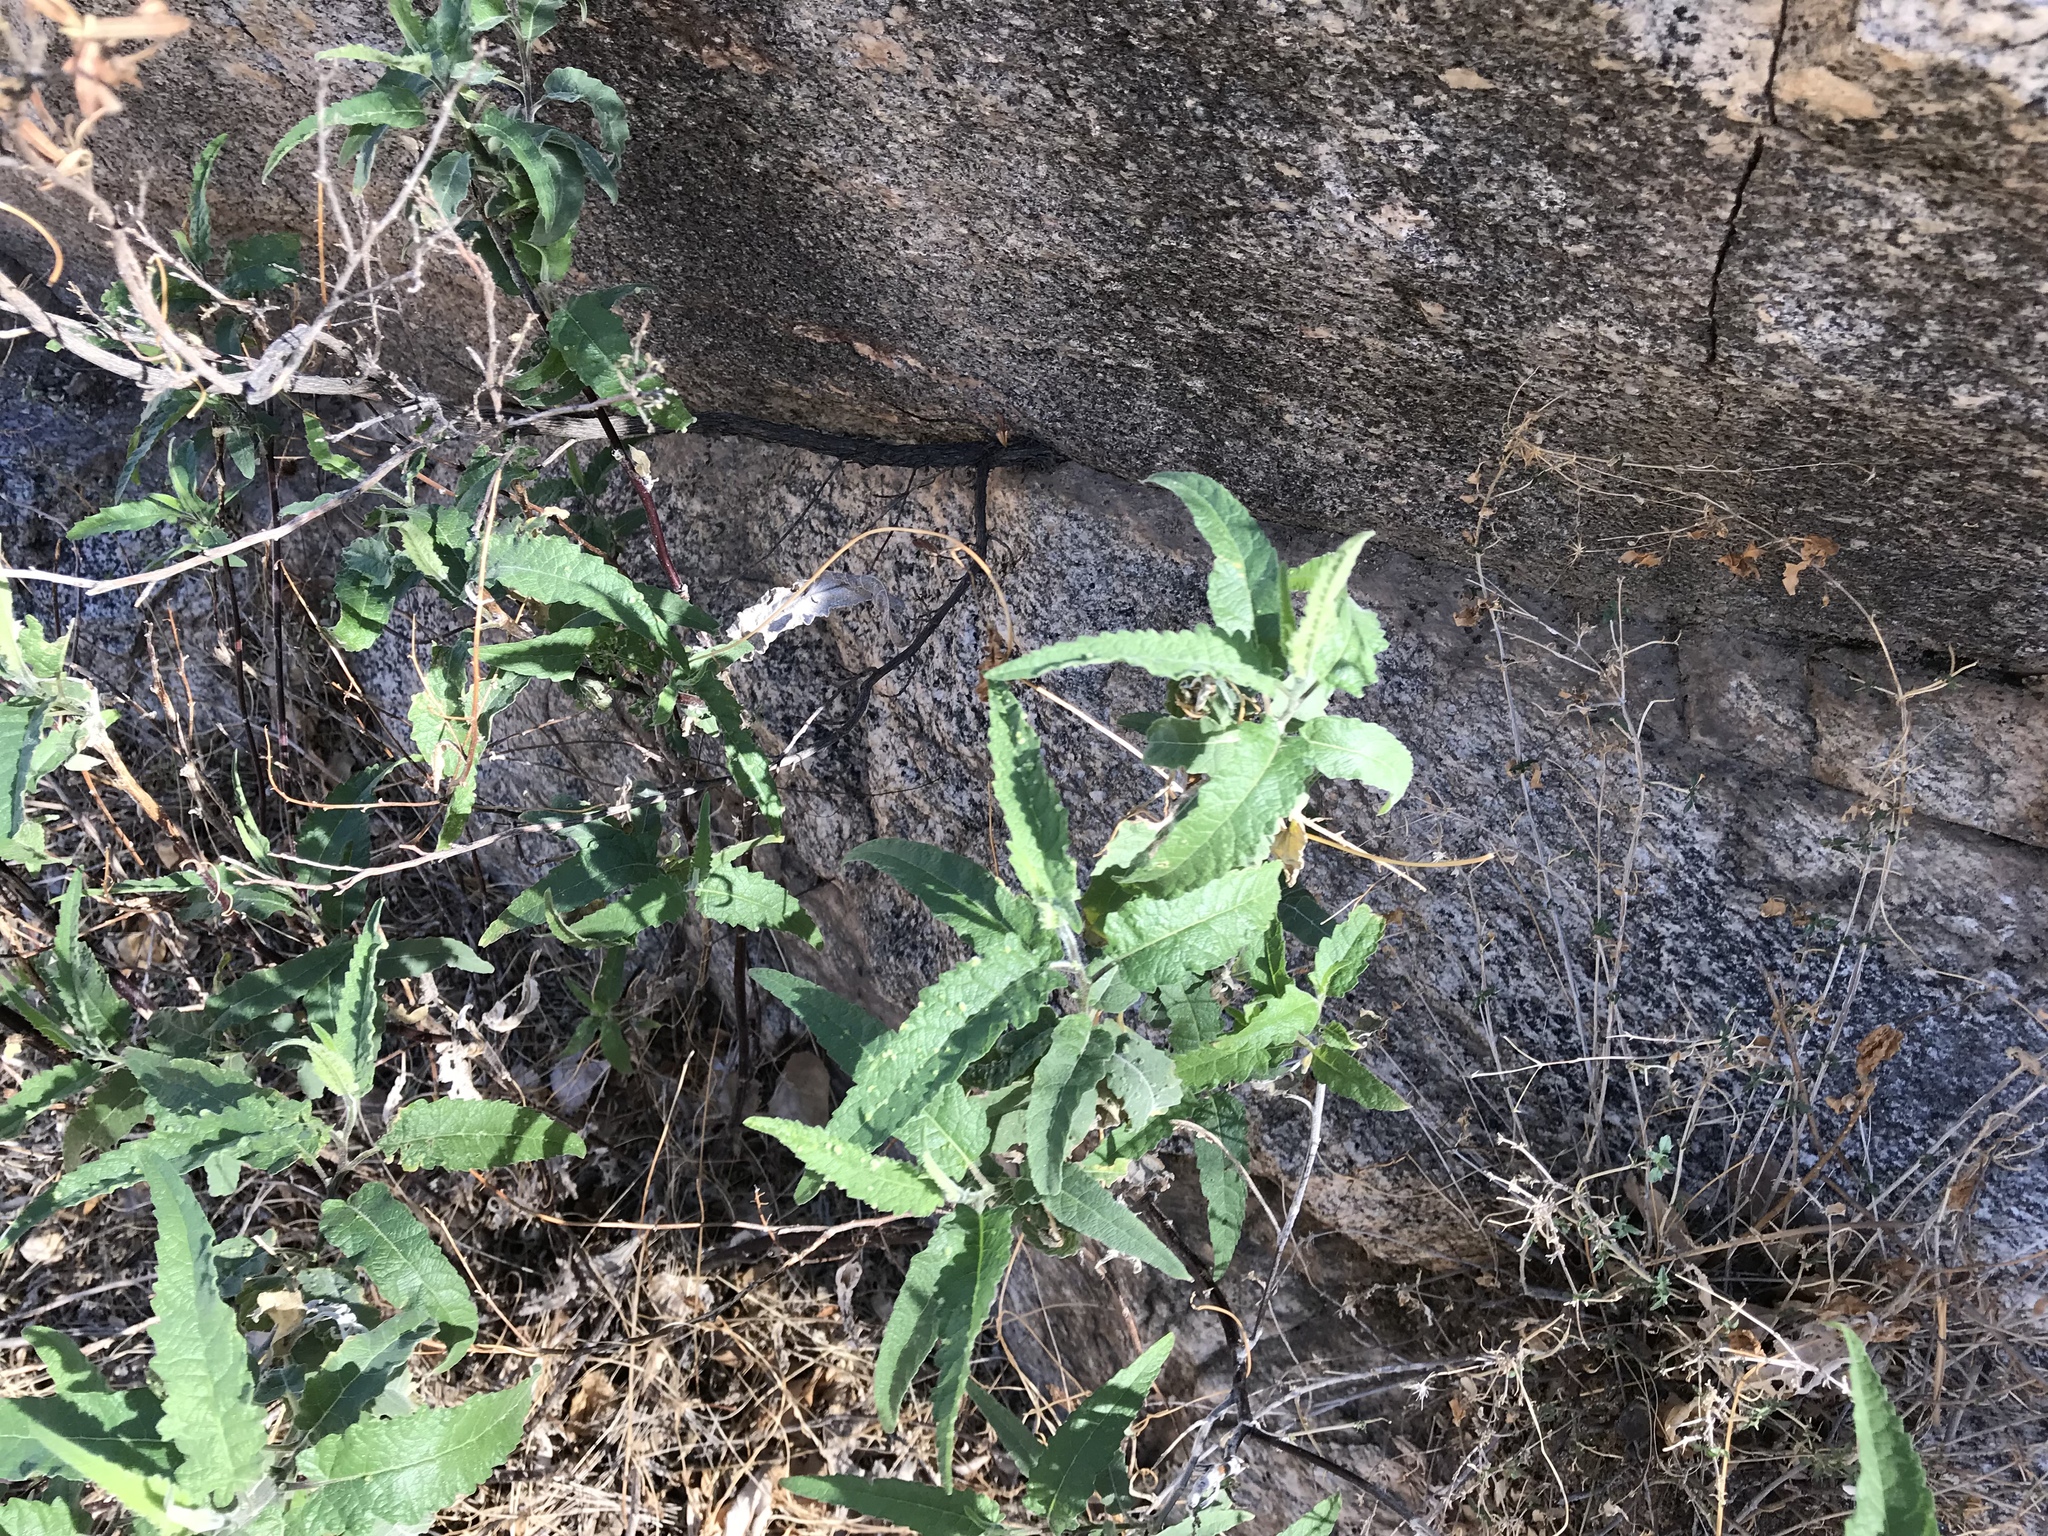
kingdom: Plantae
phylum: Tracheophyta
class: Magnoliopsida
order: Asterales
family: Asteraceae
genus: Ambrosia
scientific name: Ambrosia ambrosioides
